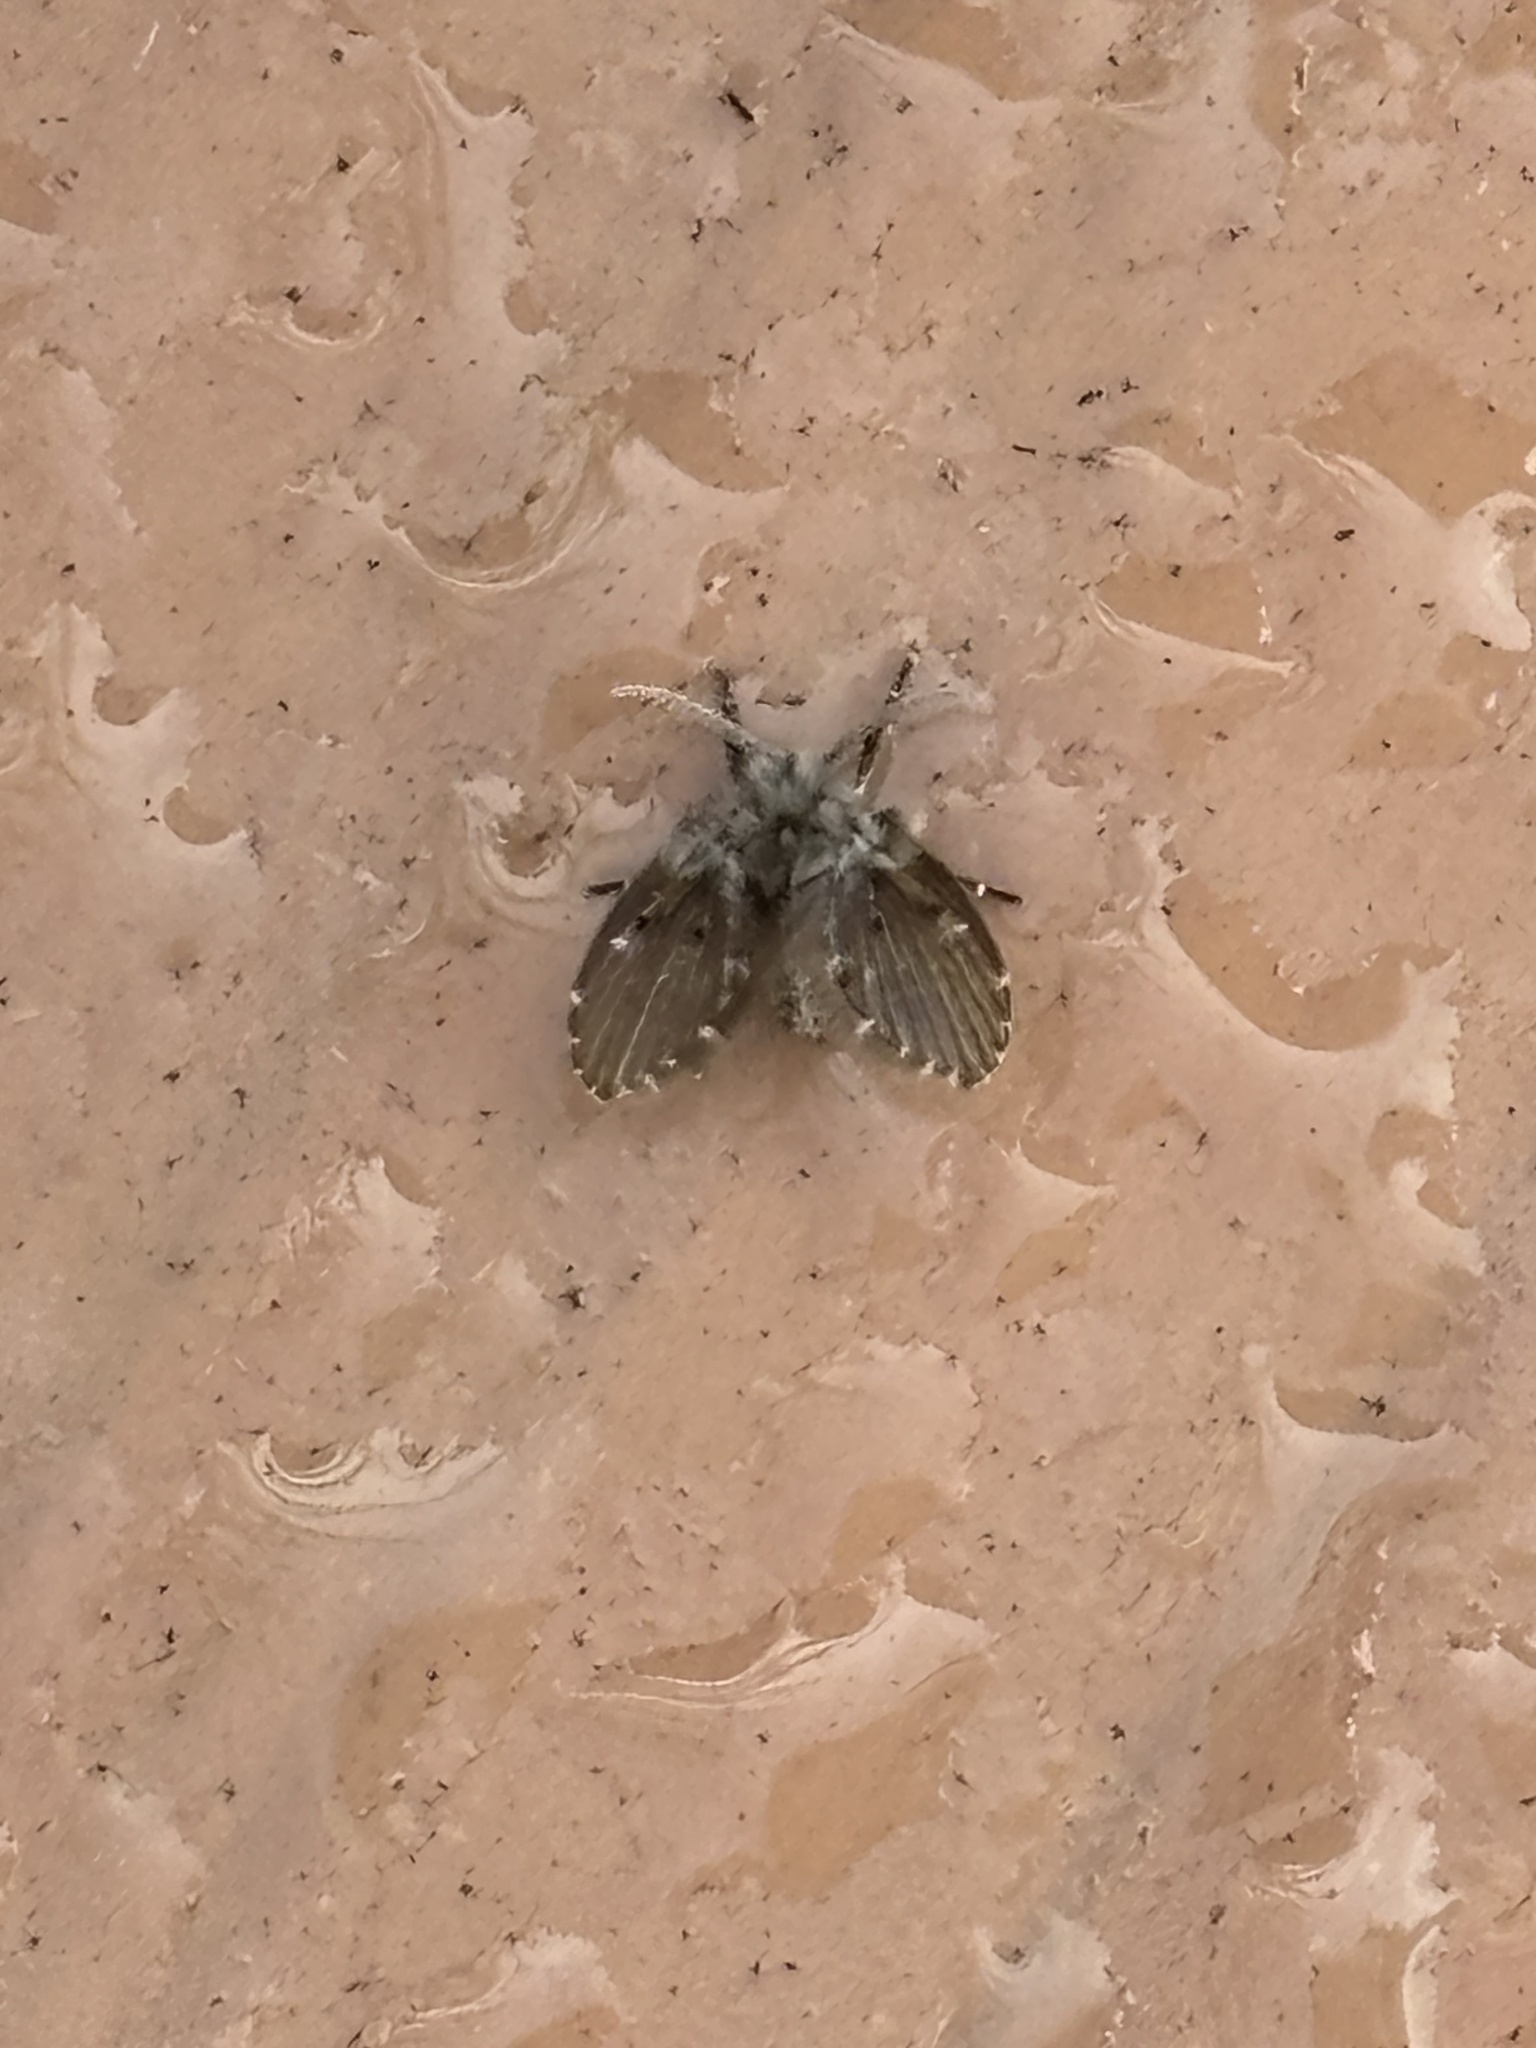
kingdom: Animalia
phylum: Arthropoda
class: Insecta
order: Diptera
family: Psychodidae
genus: Clogmia
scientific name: Clogmia albipunctatus
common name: White-spotted moth fly
